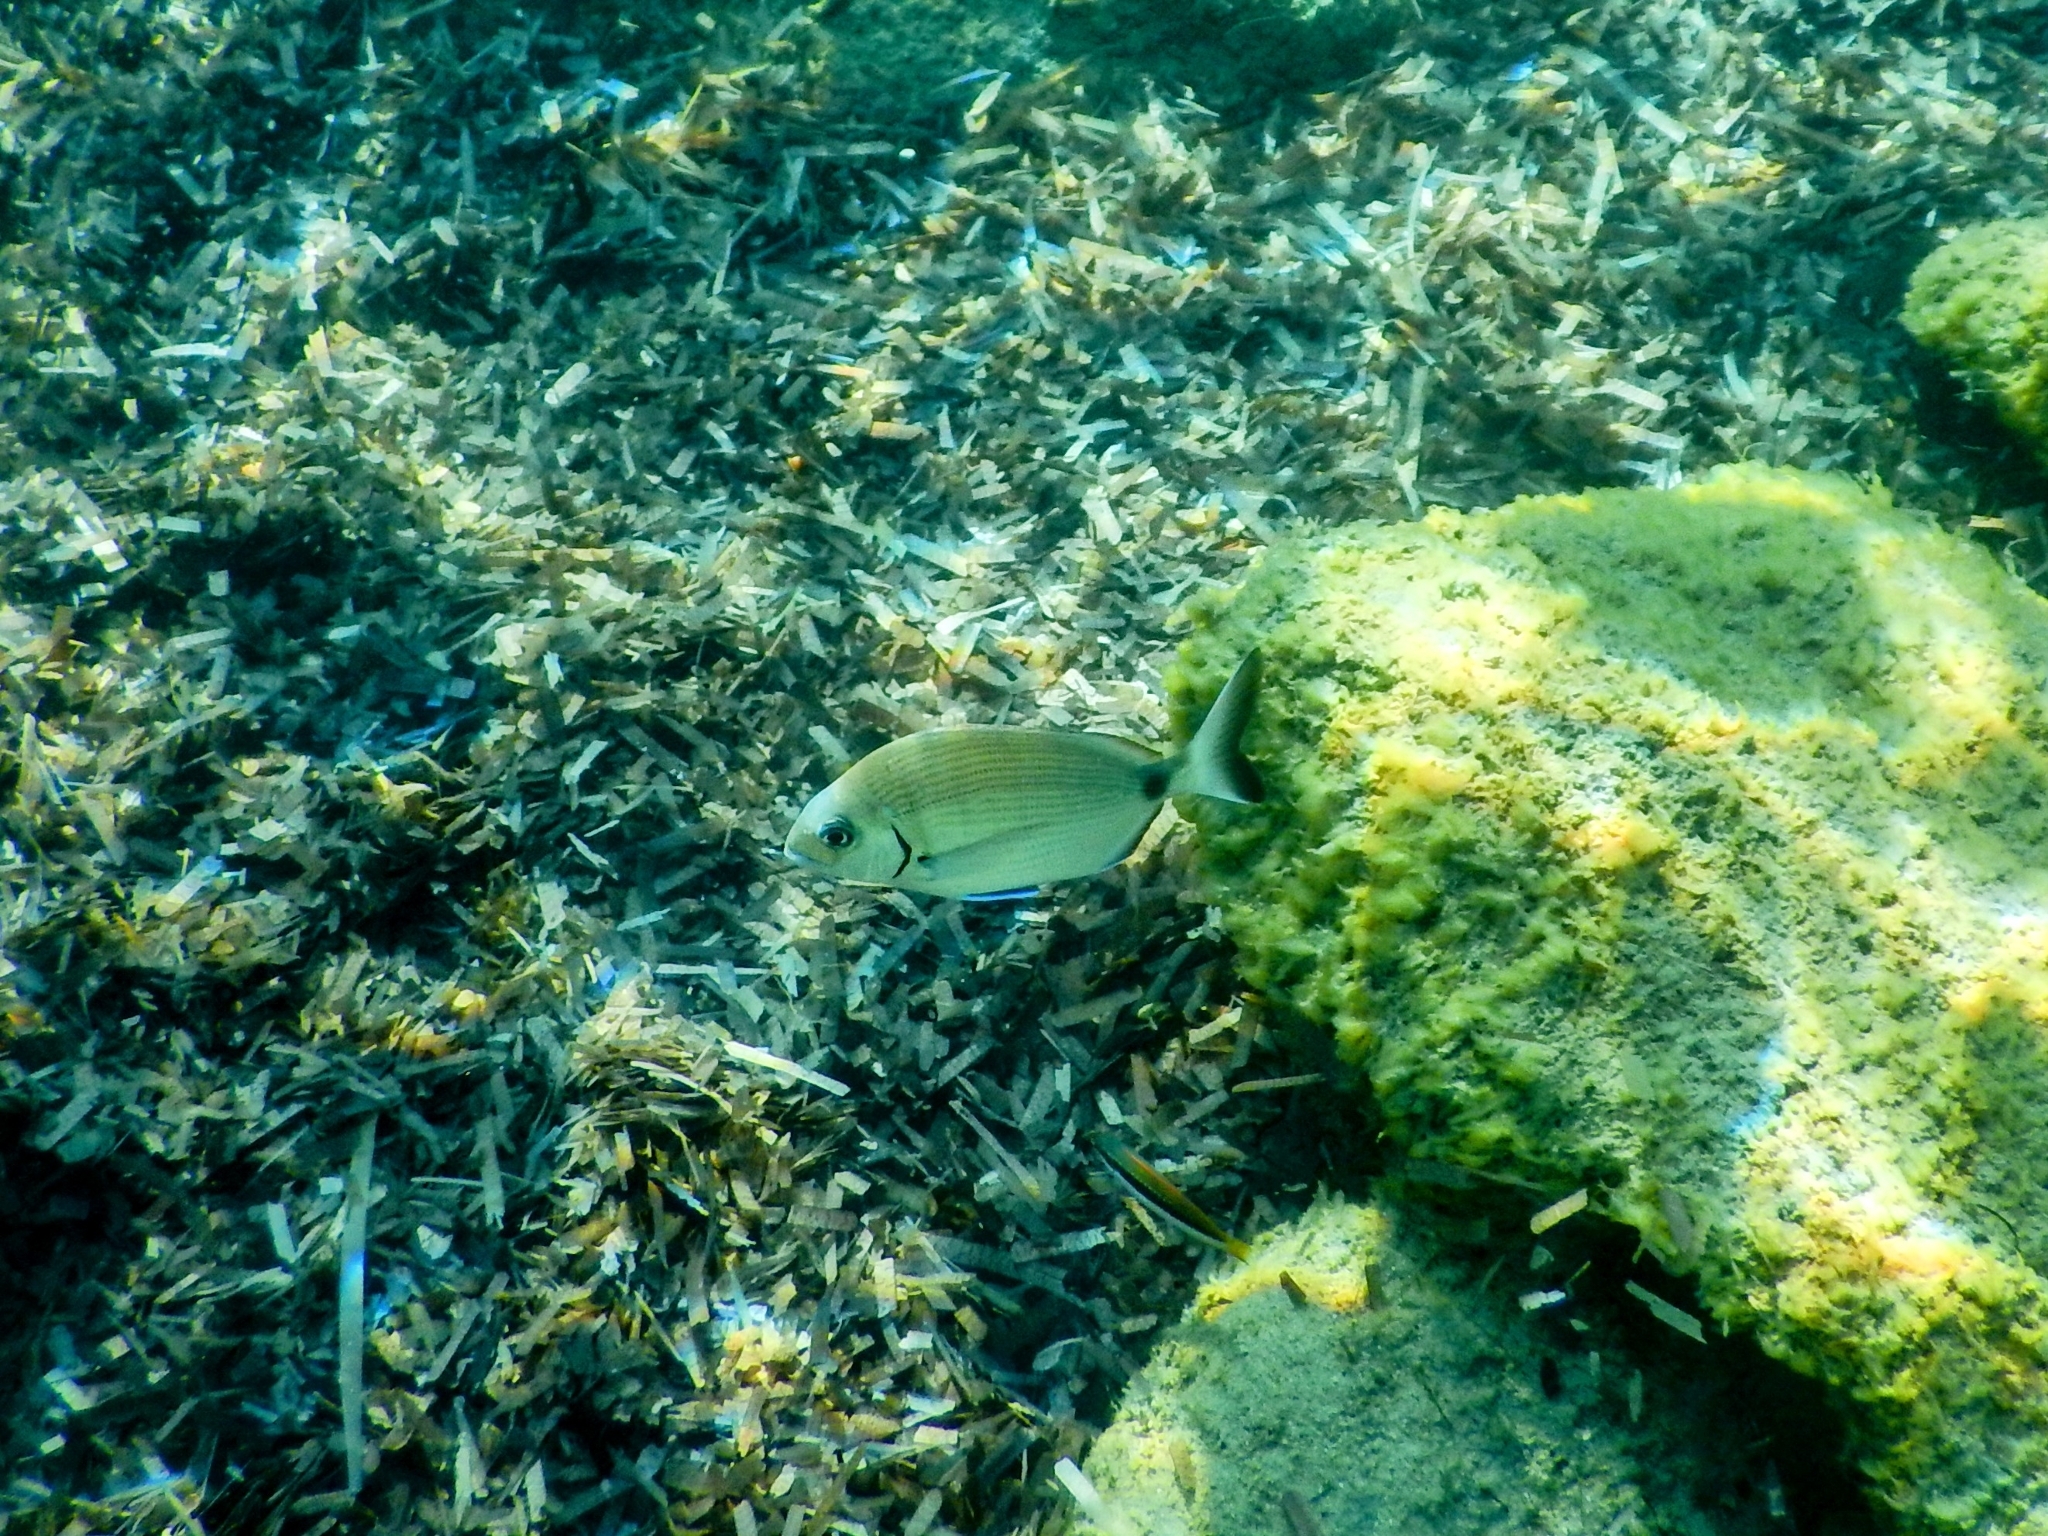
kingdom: Animalia
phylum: Chordata
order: Perciformes
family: Sparidae
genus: Diplodus
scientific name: Diplodus sargus
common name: White seabream
